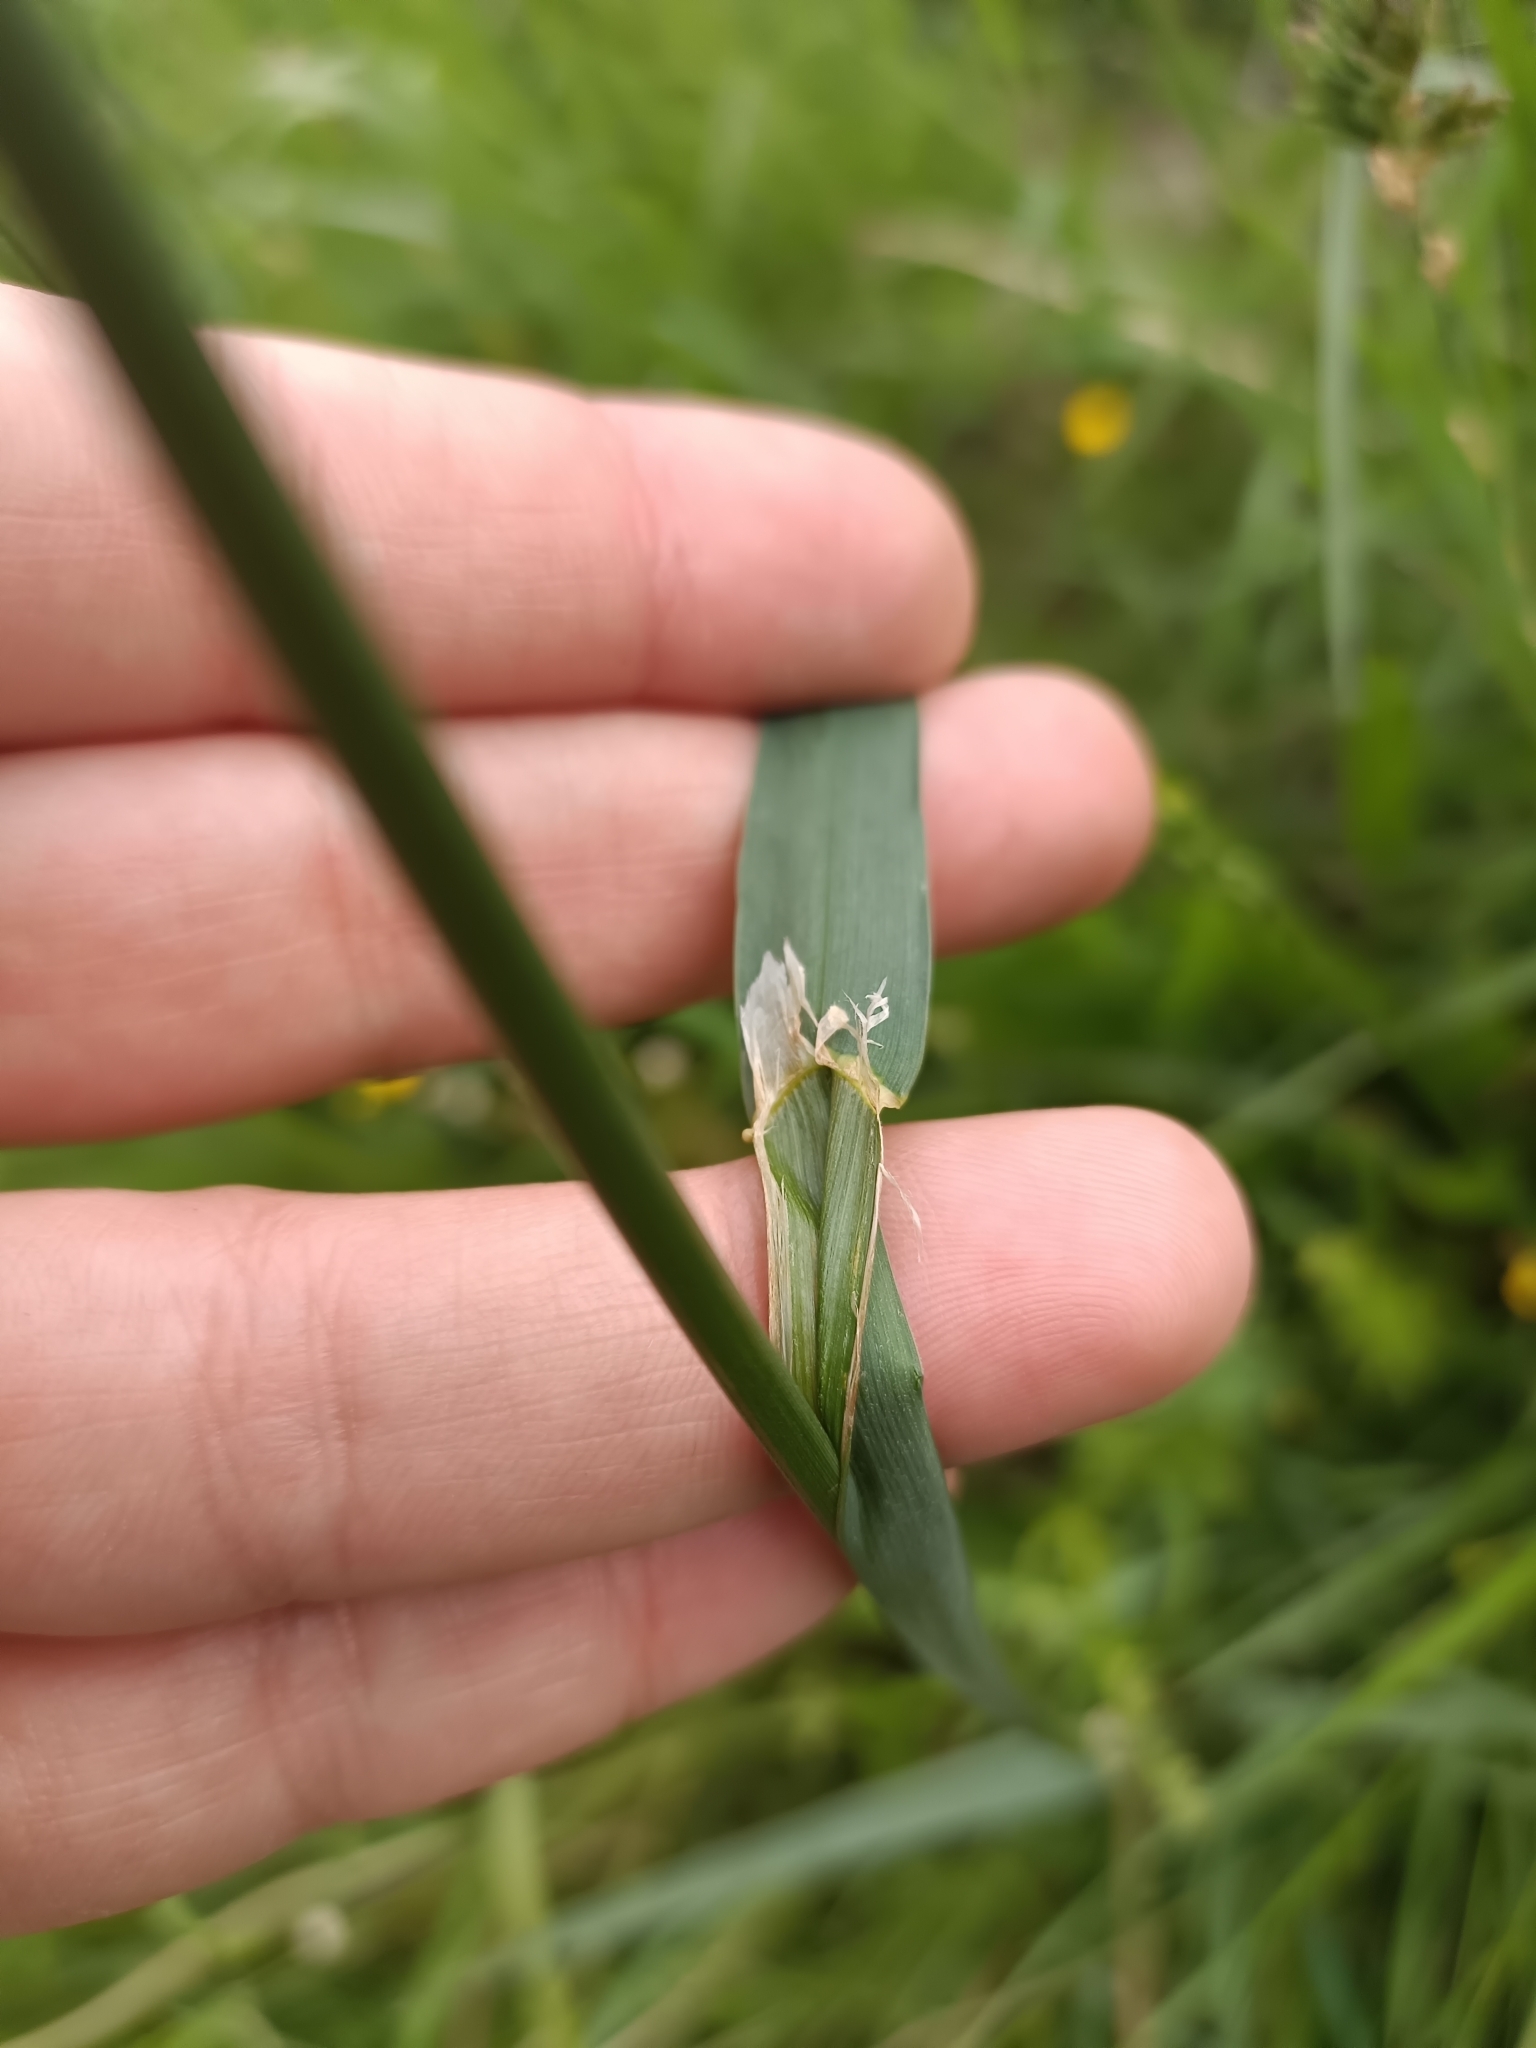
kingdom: Plantae
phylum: Tracheophyta
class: Liliopsida
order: Poales
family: Poaceae
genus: Dactylis
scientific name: Dactylis glomerata
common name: Orchardgrass
